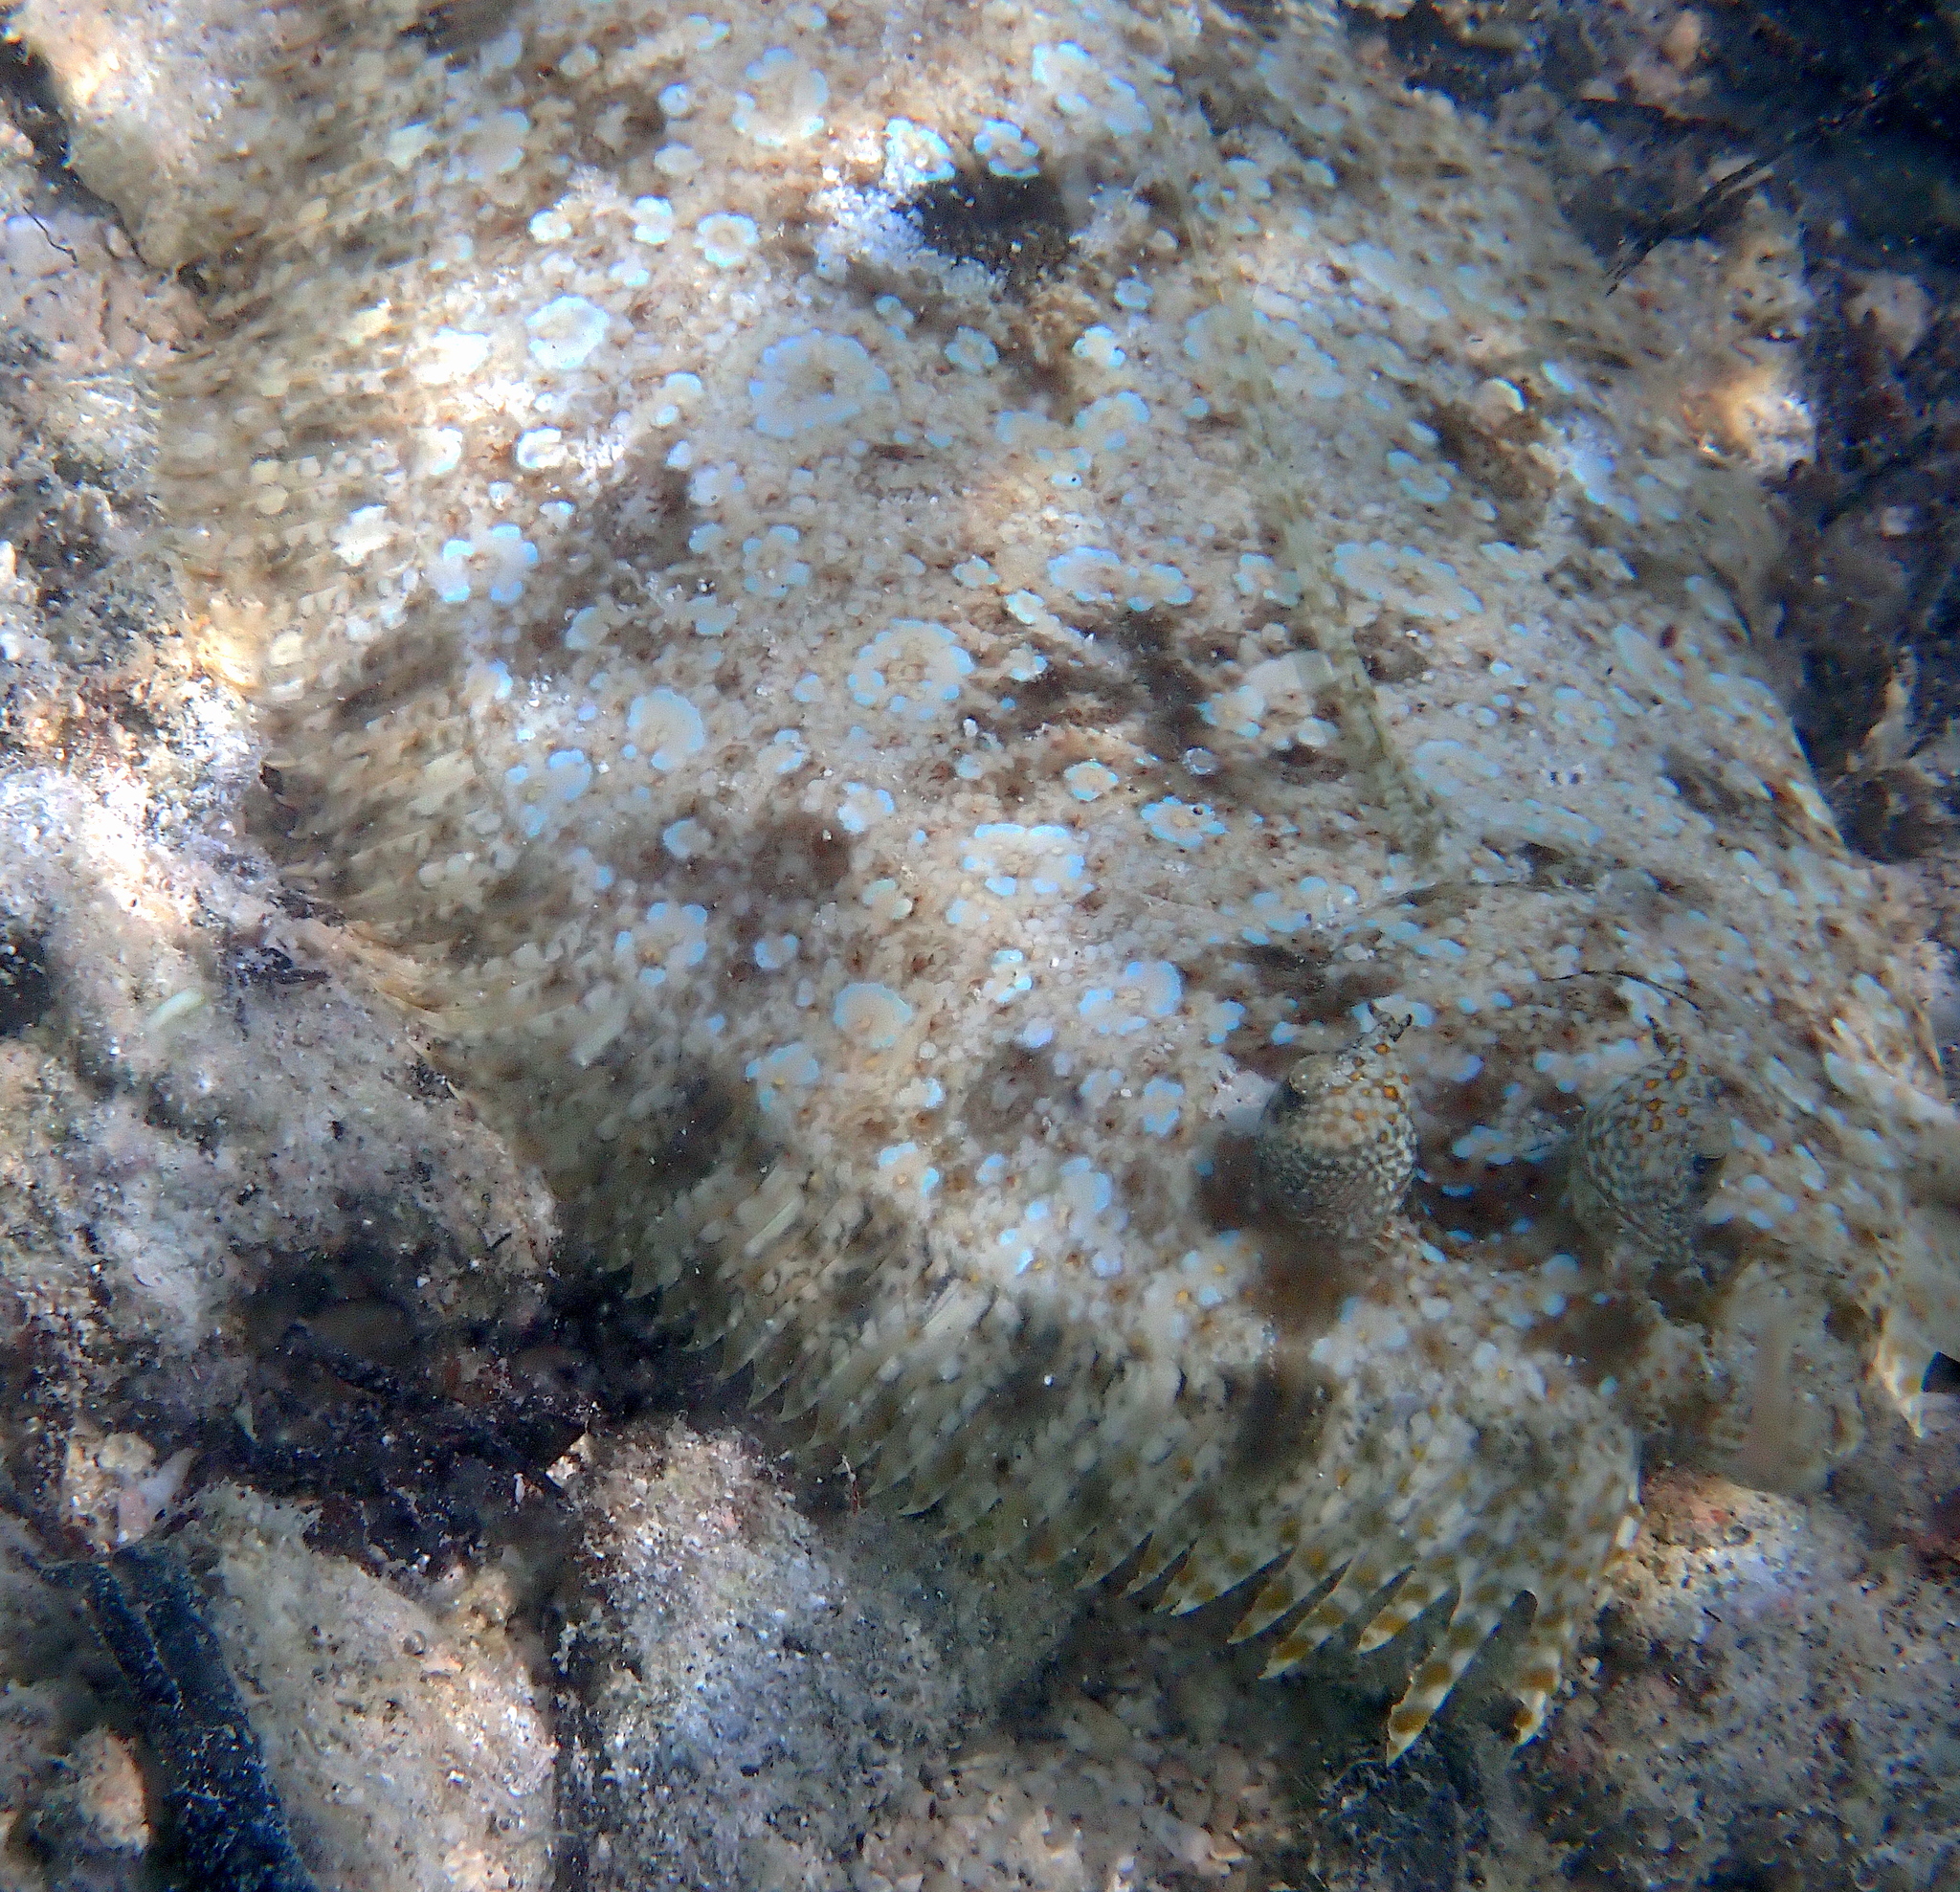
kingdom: Animalia
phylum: Chordata
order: Pleuronectiformes
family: Bothidae
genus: Bothus
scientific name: Bothus pantherinus
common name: Leopard flounder
